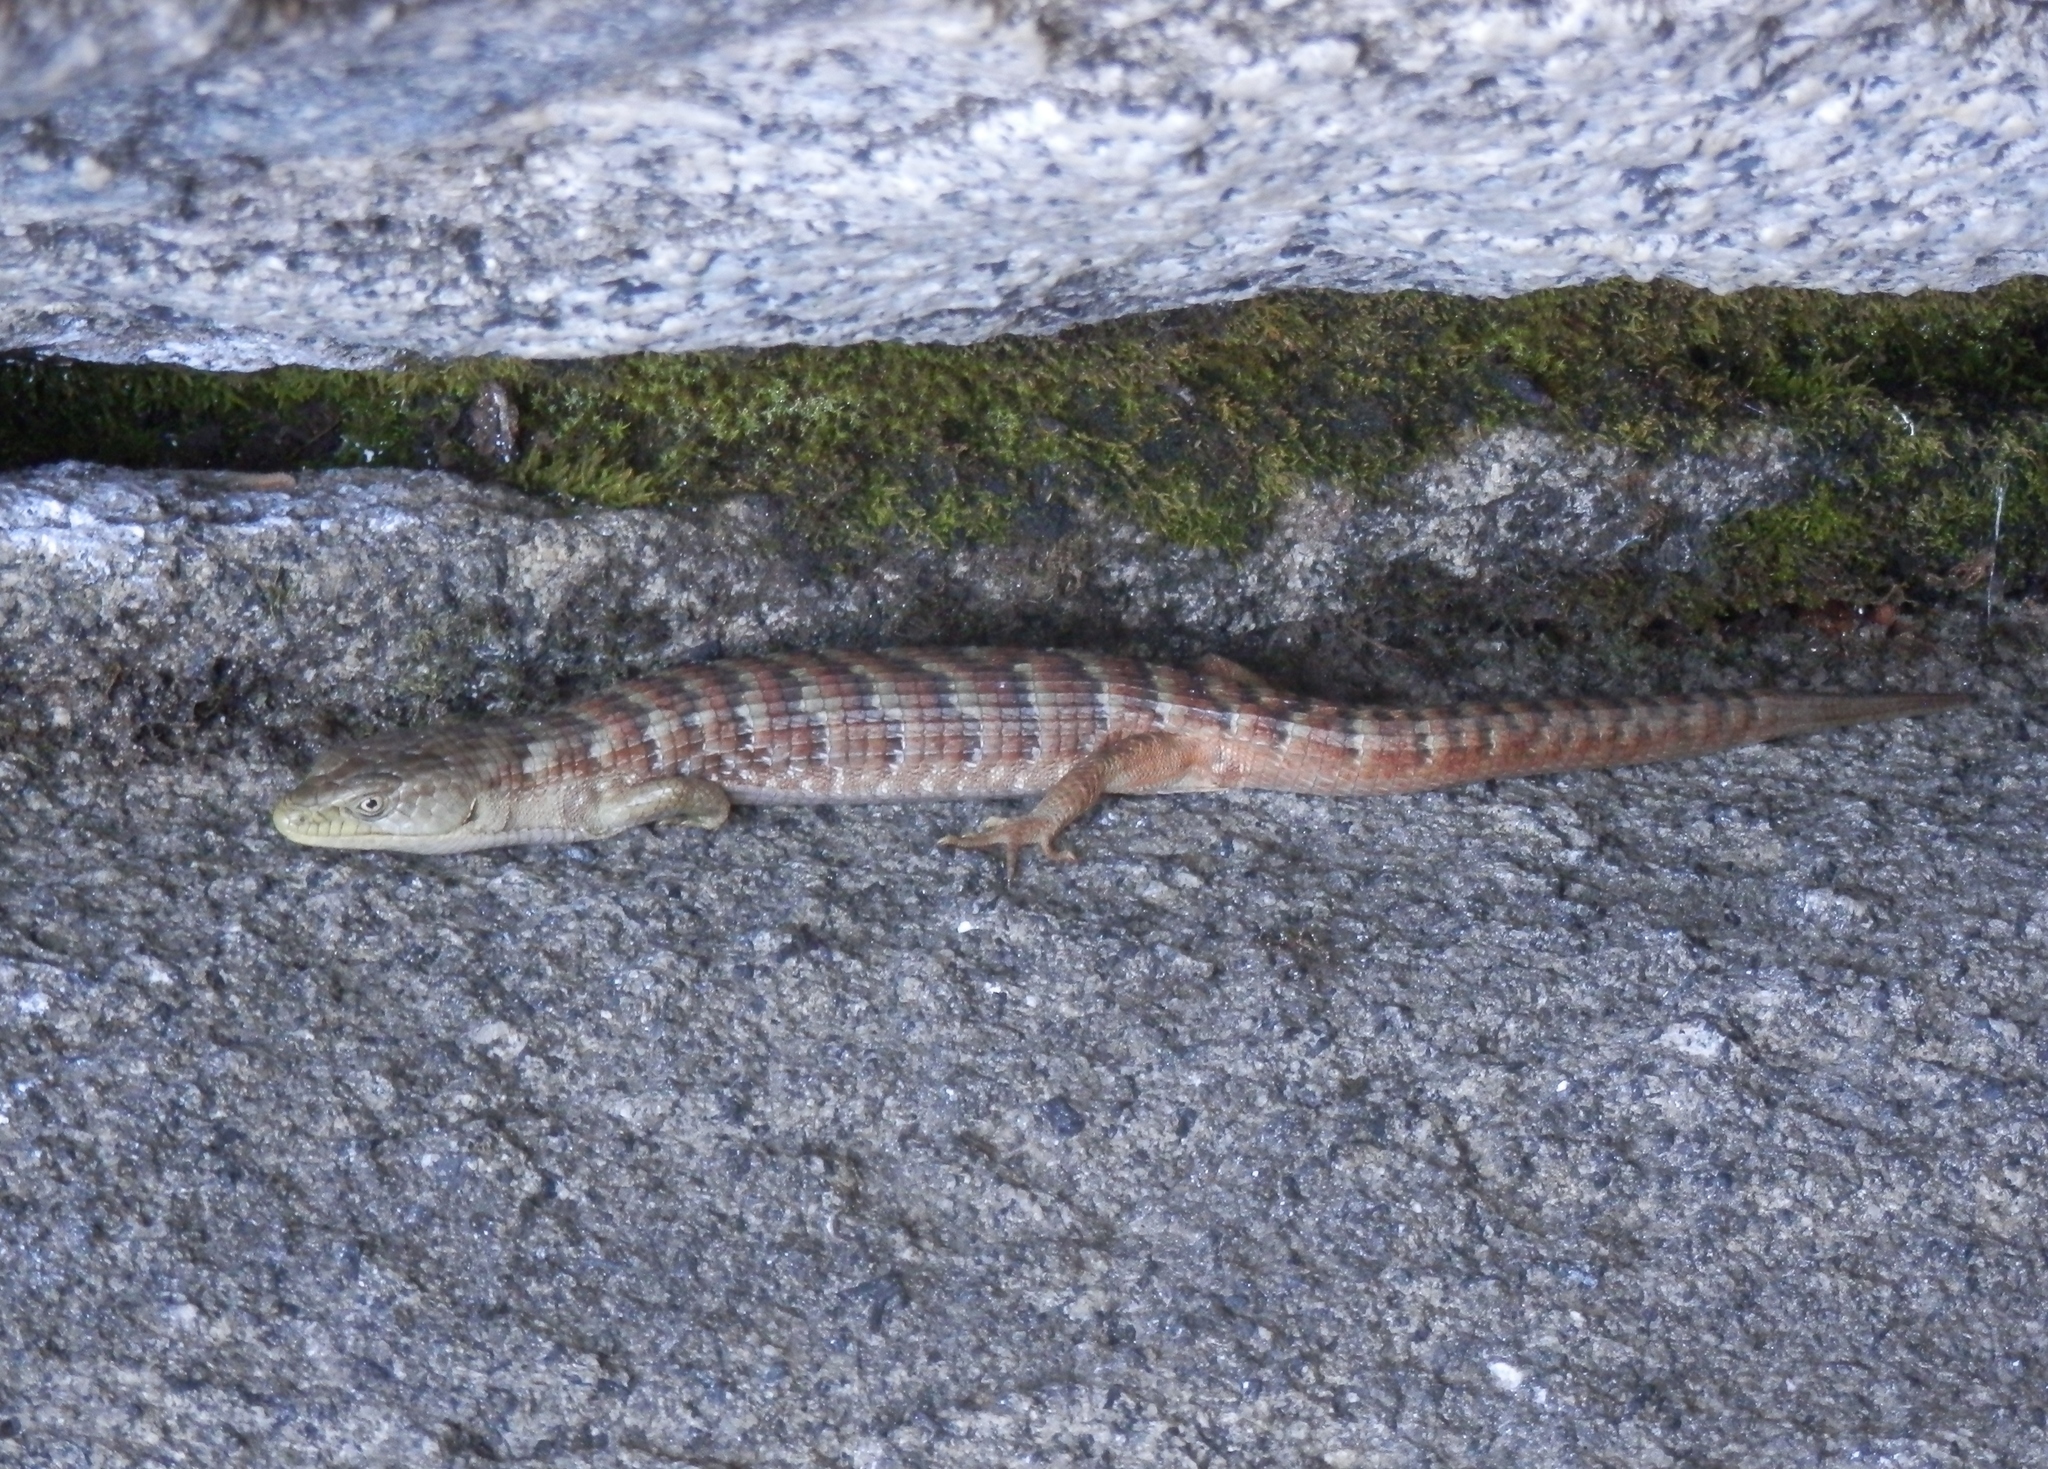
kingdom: Animalia
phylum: Chordata
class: Squamata
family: Anguidae
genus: Elgaria
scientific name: Elgaria multicarinata
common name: Southern alligator lizard
